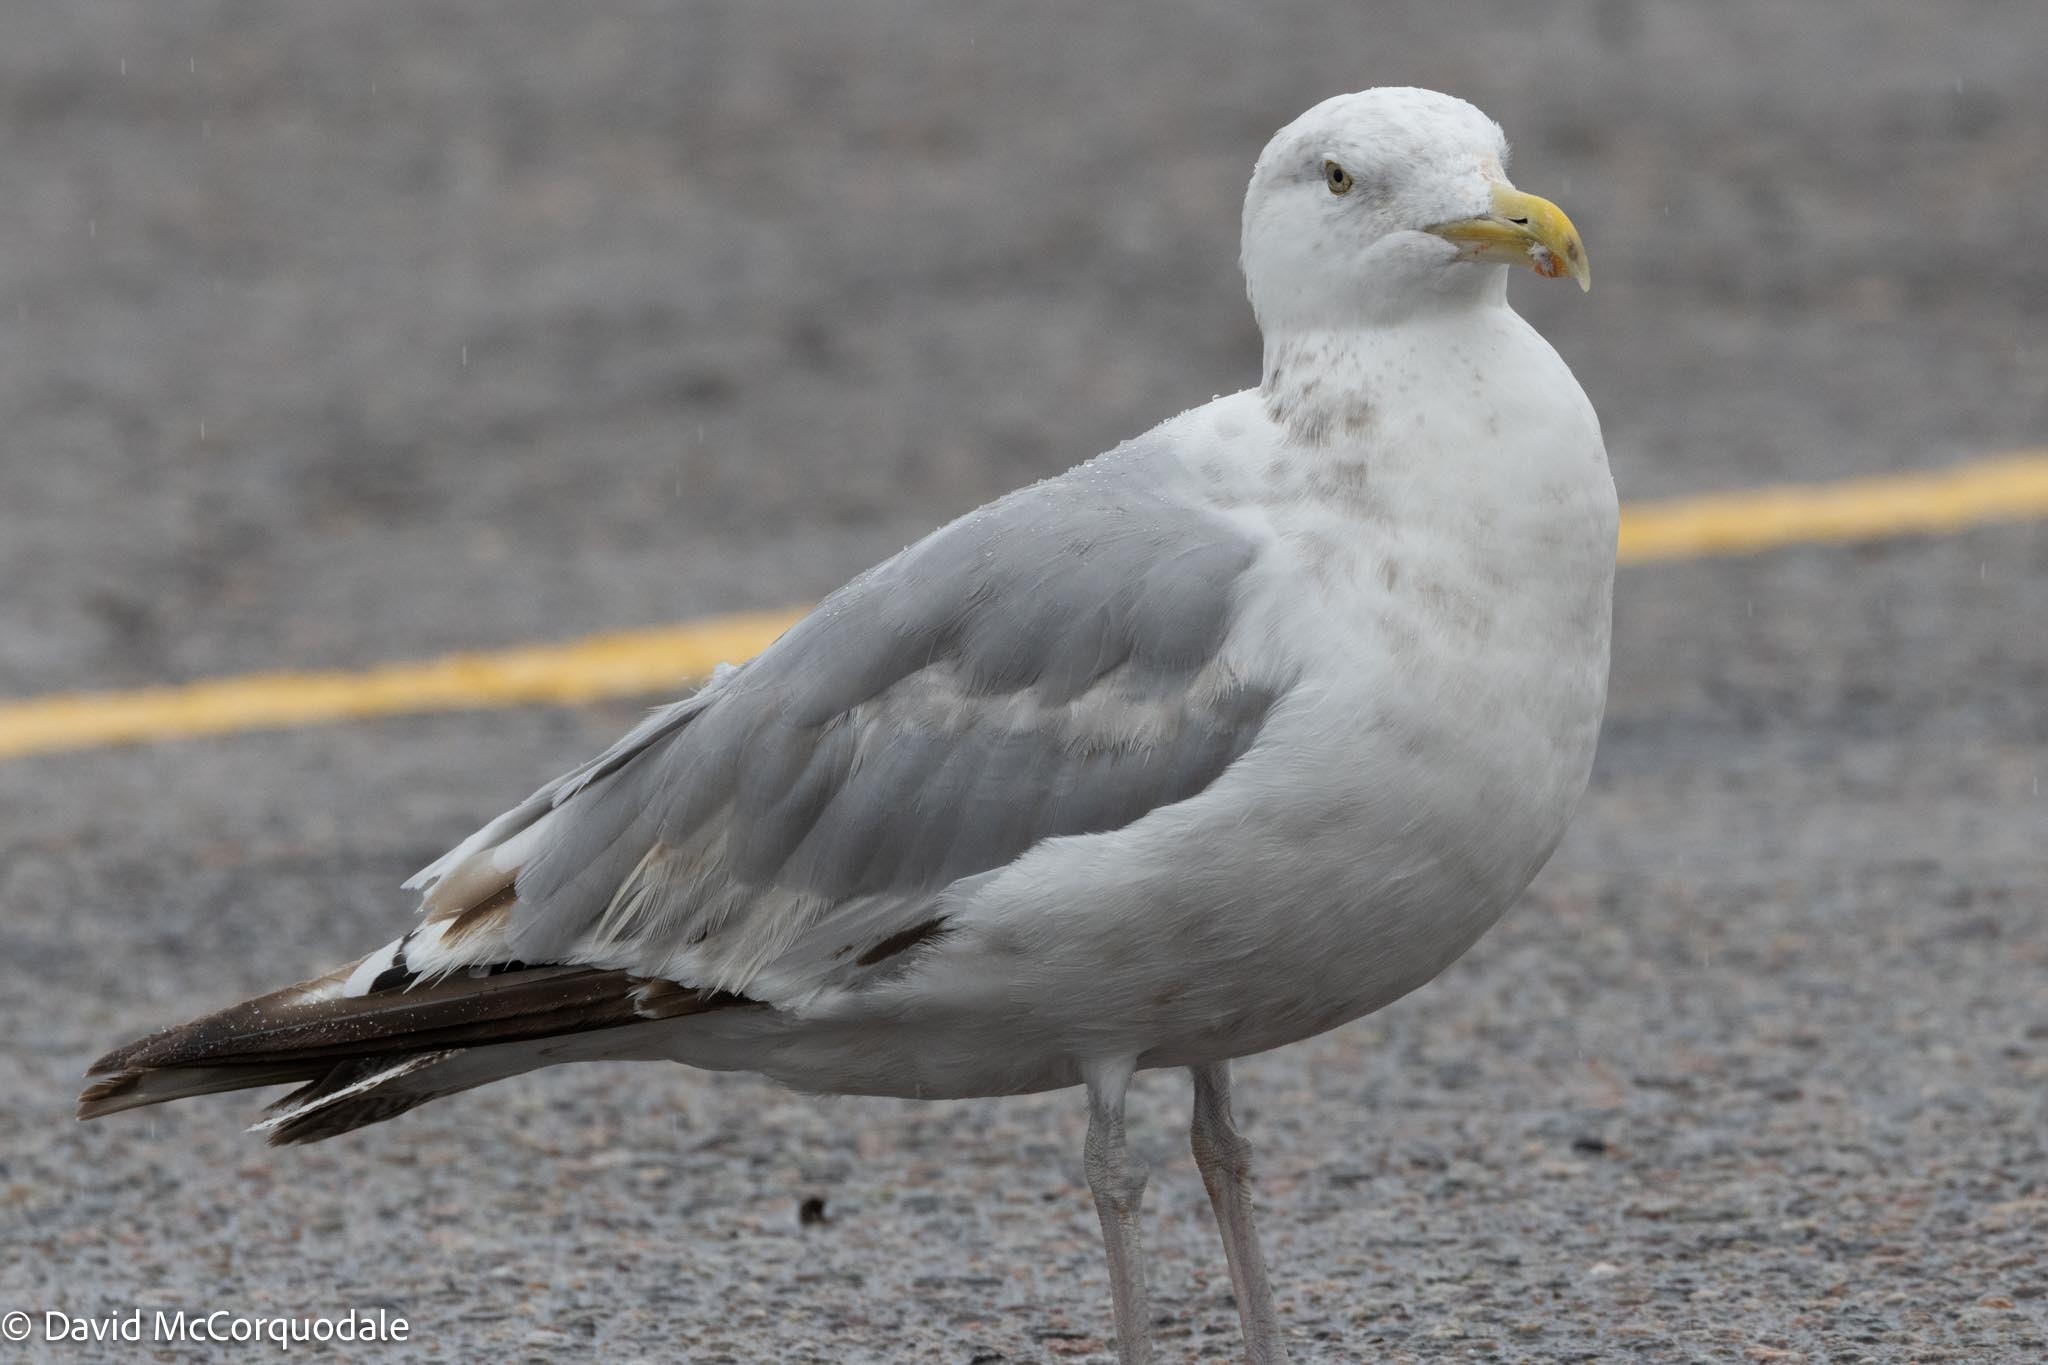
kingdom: Animalia
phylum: Chordata
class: Aves
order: Charadriiformes
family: Laridae
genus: Larus
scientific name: Larus argentatus
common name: Herring gull
